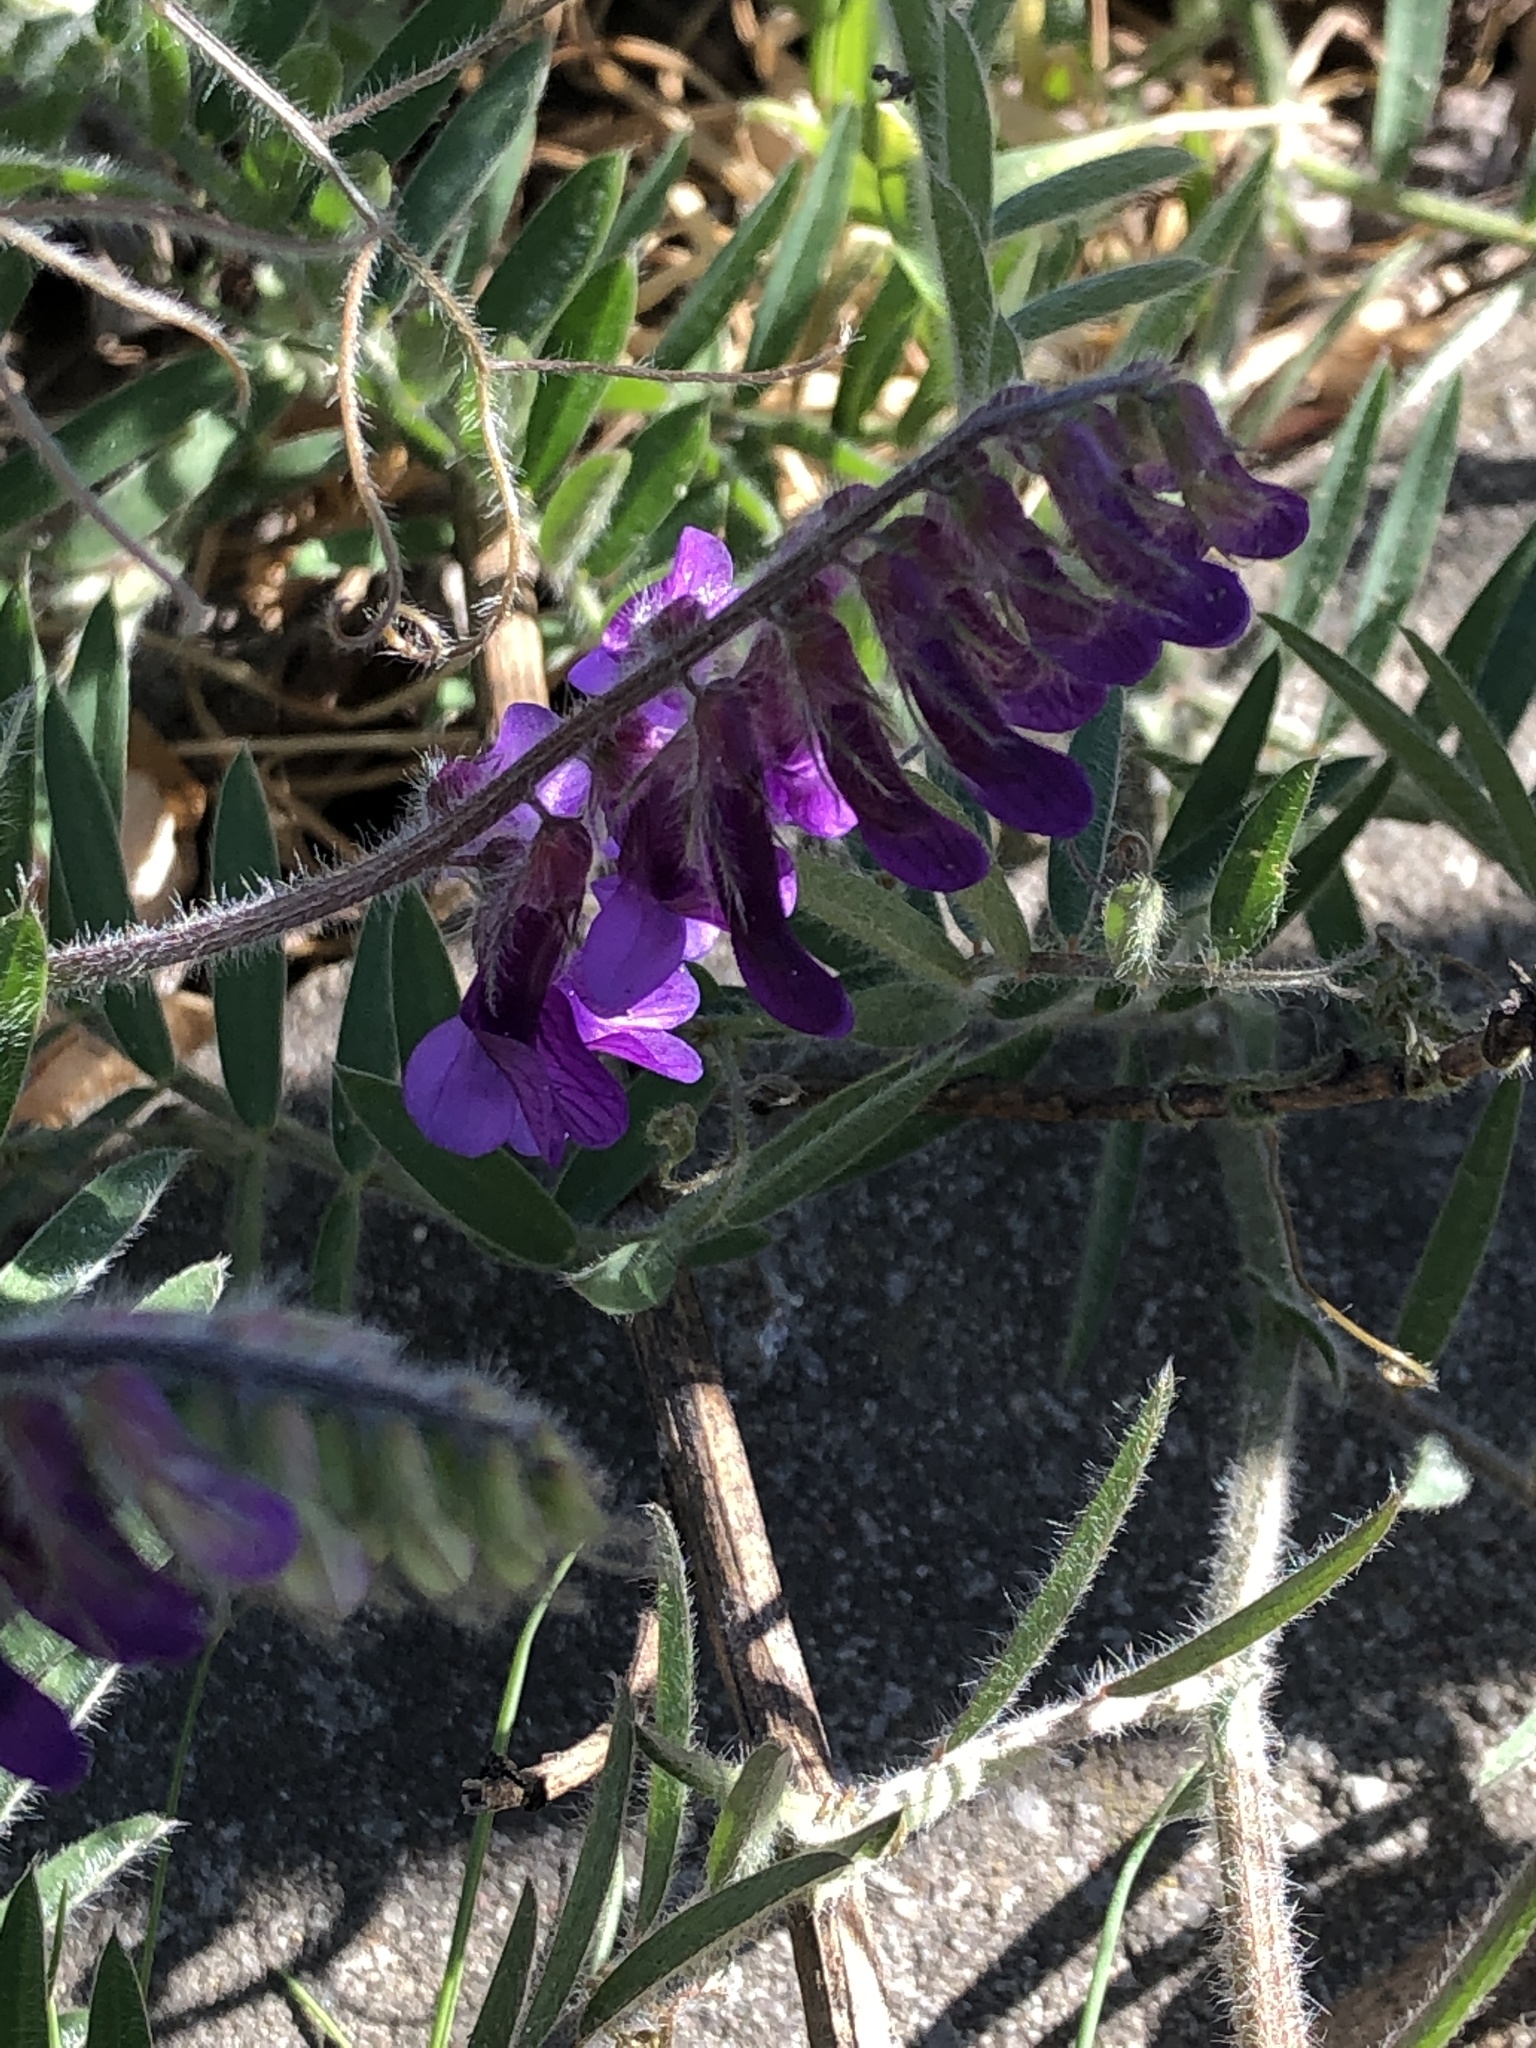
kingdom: Plantae
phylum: Tracheophyta
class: Magnoliopsida
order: Fabales
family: Fabaceae
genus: Vicia
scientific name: Vicia villosa
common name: Fodder vetch
